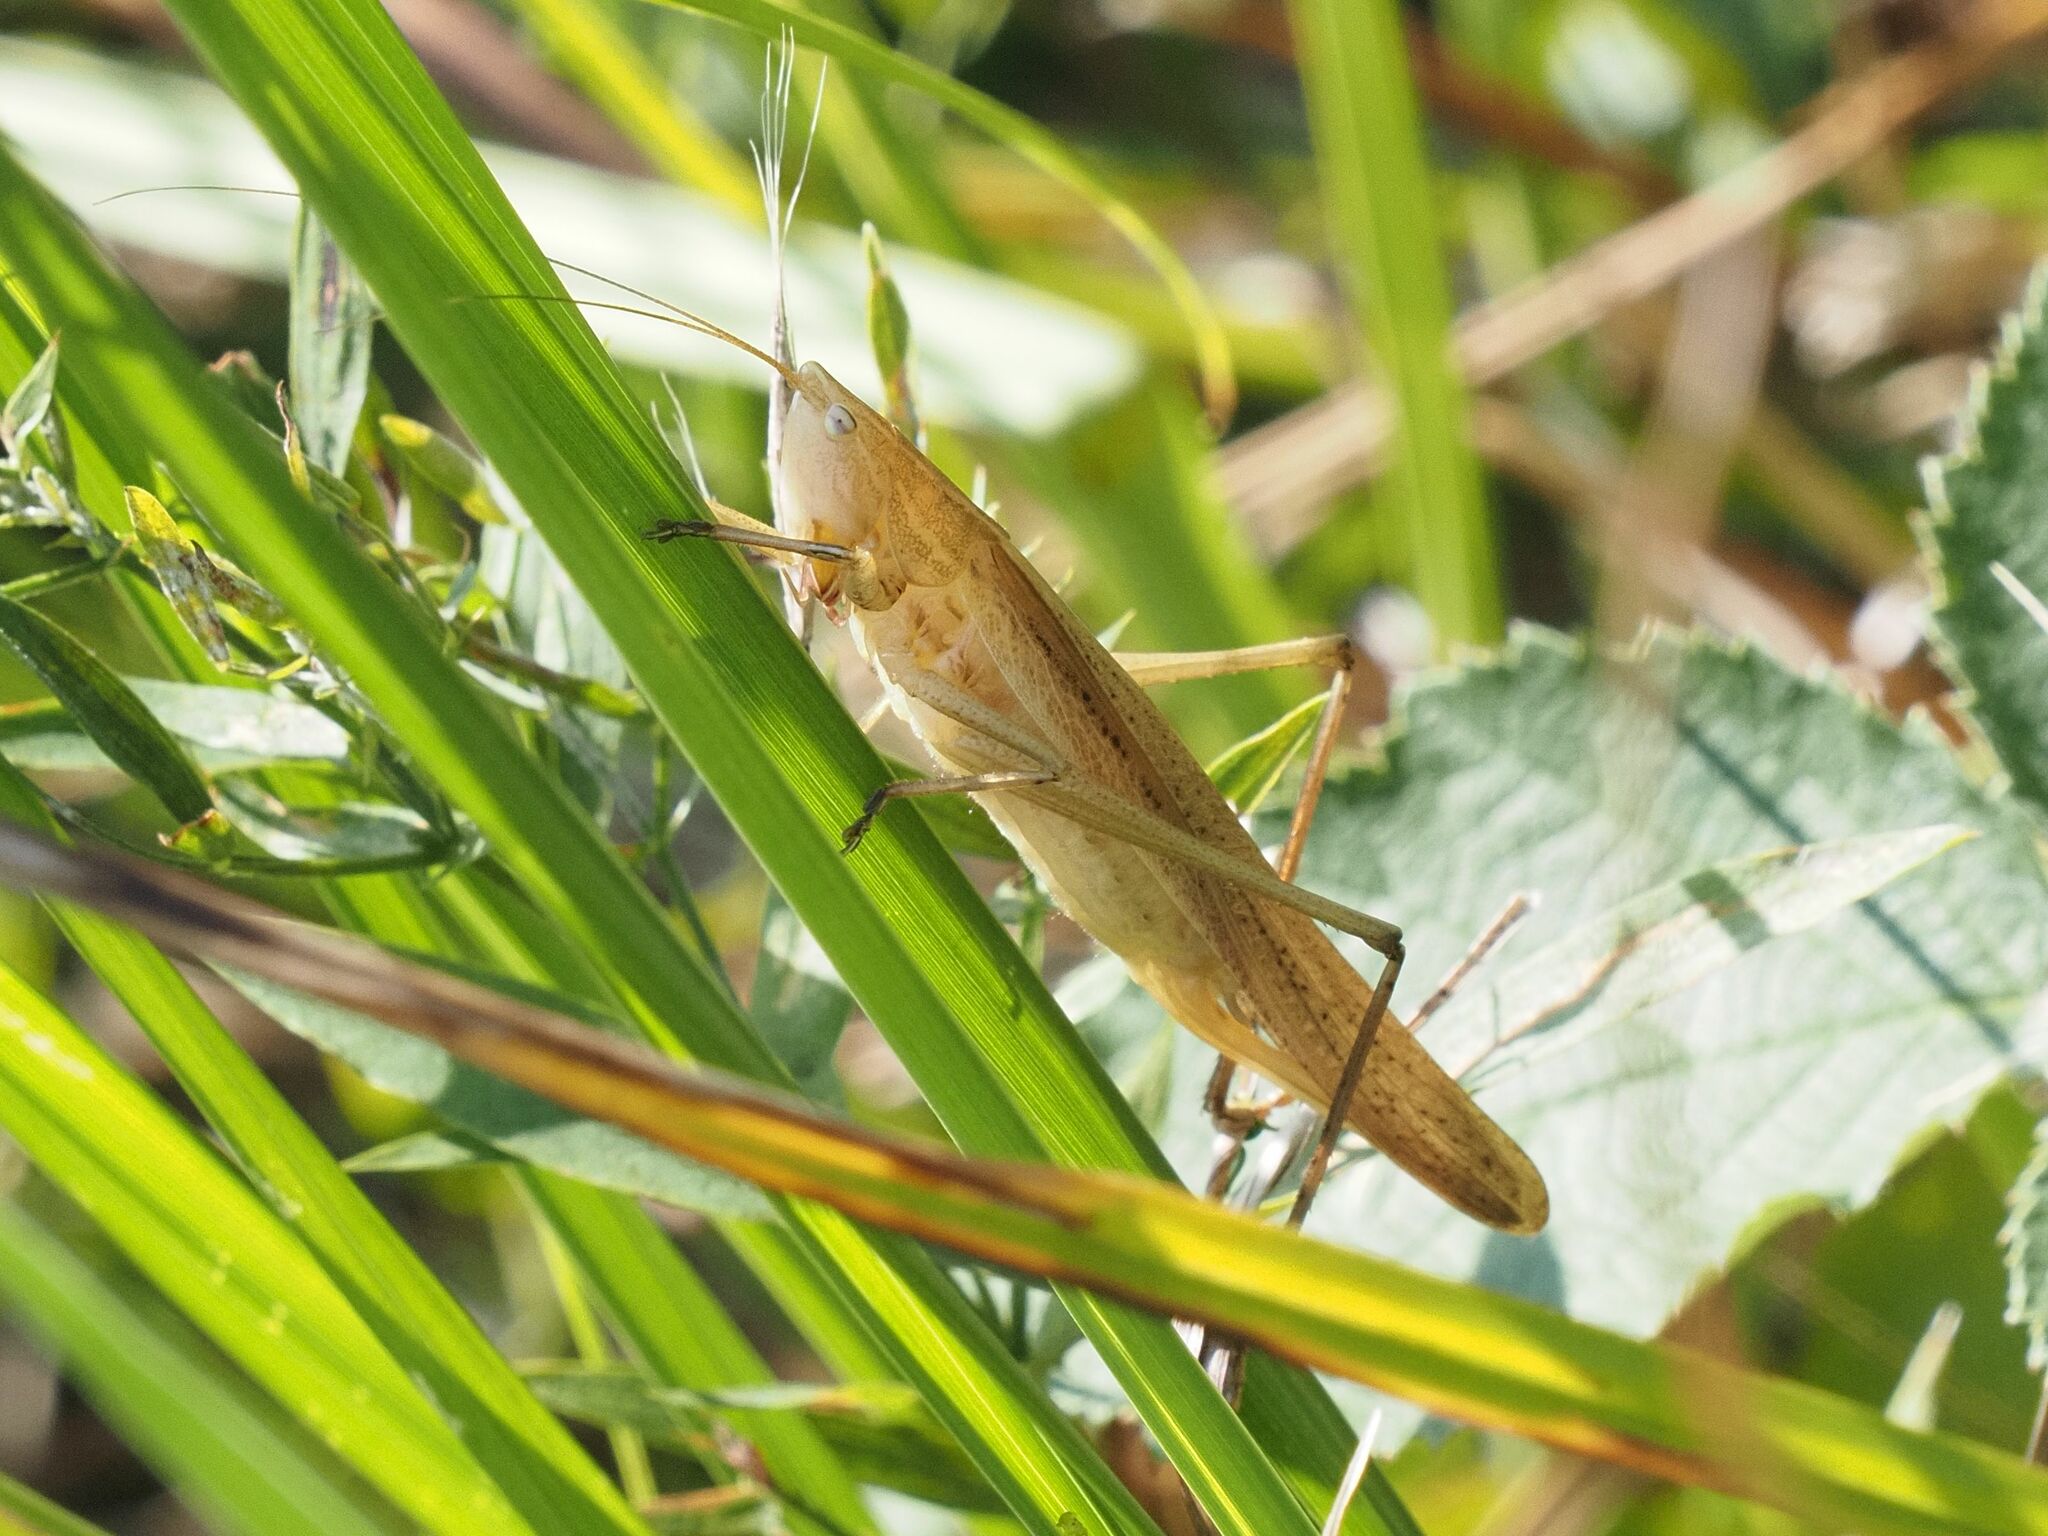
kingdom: Animalia
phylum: Arthropoda
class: Insecta
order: Orthoptera
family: Tettigoniidae
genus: Ruspolia
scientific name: Ruspolia nitidula
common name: Large conehead
